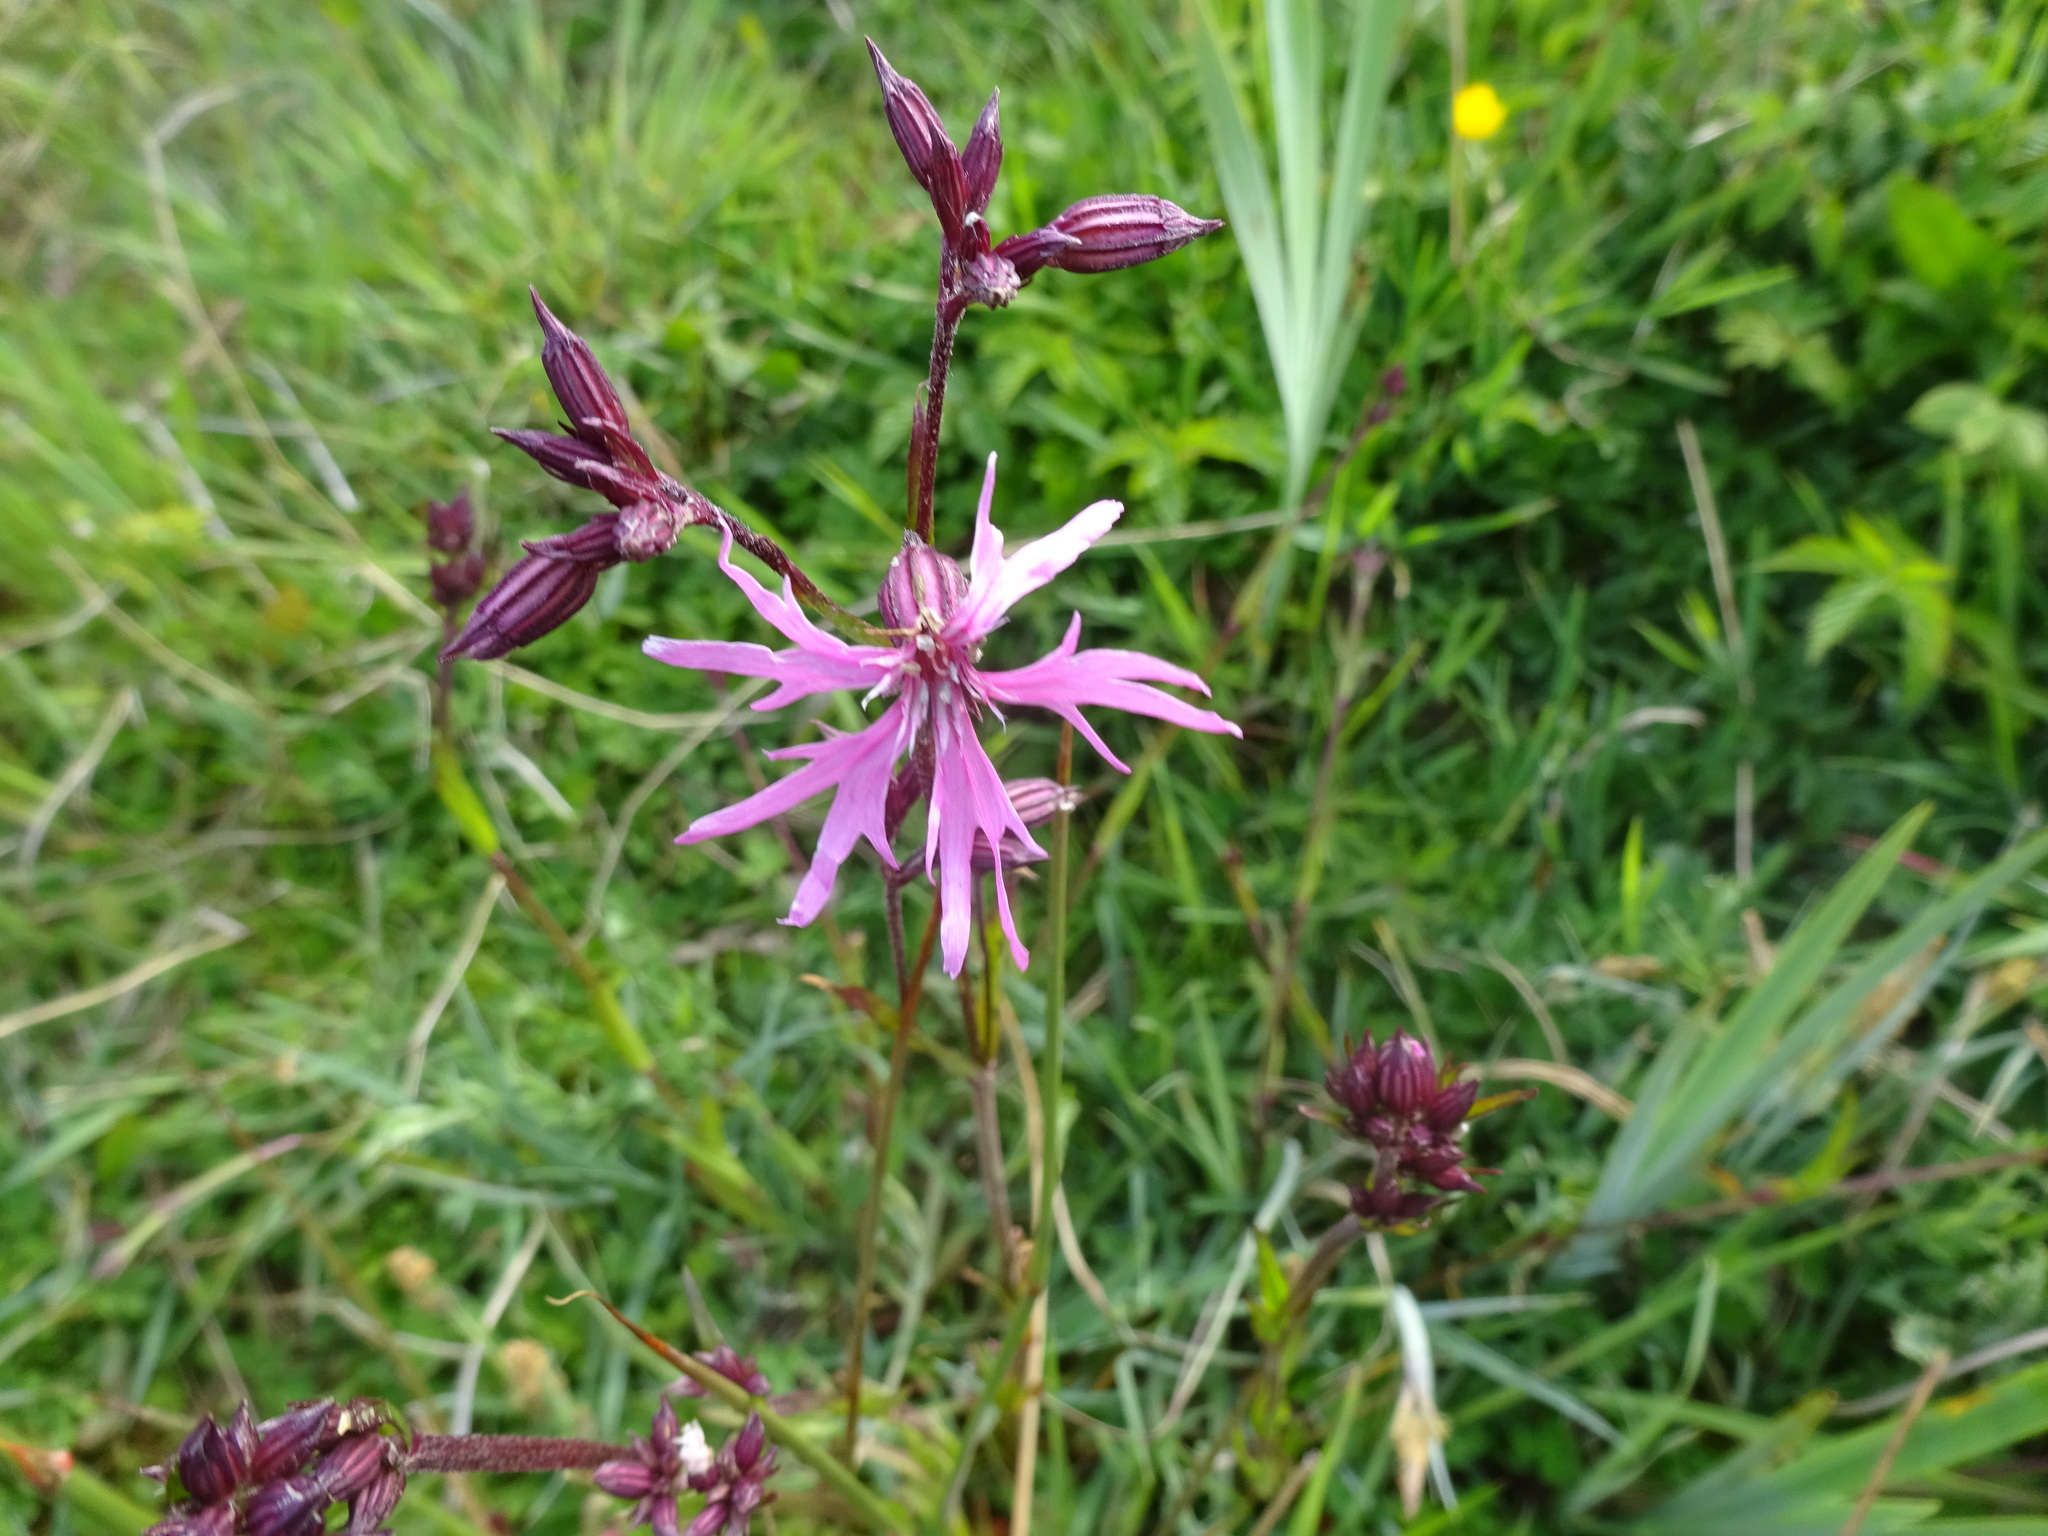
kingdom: Plantae
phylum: Tracheophyta
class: Magnoliopsida
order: Caryophyllales
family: Caryophyllaceae
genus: Silene
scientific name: Silene flos-cuculi
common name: Ragged-robin
